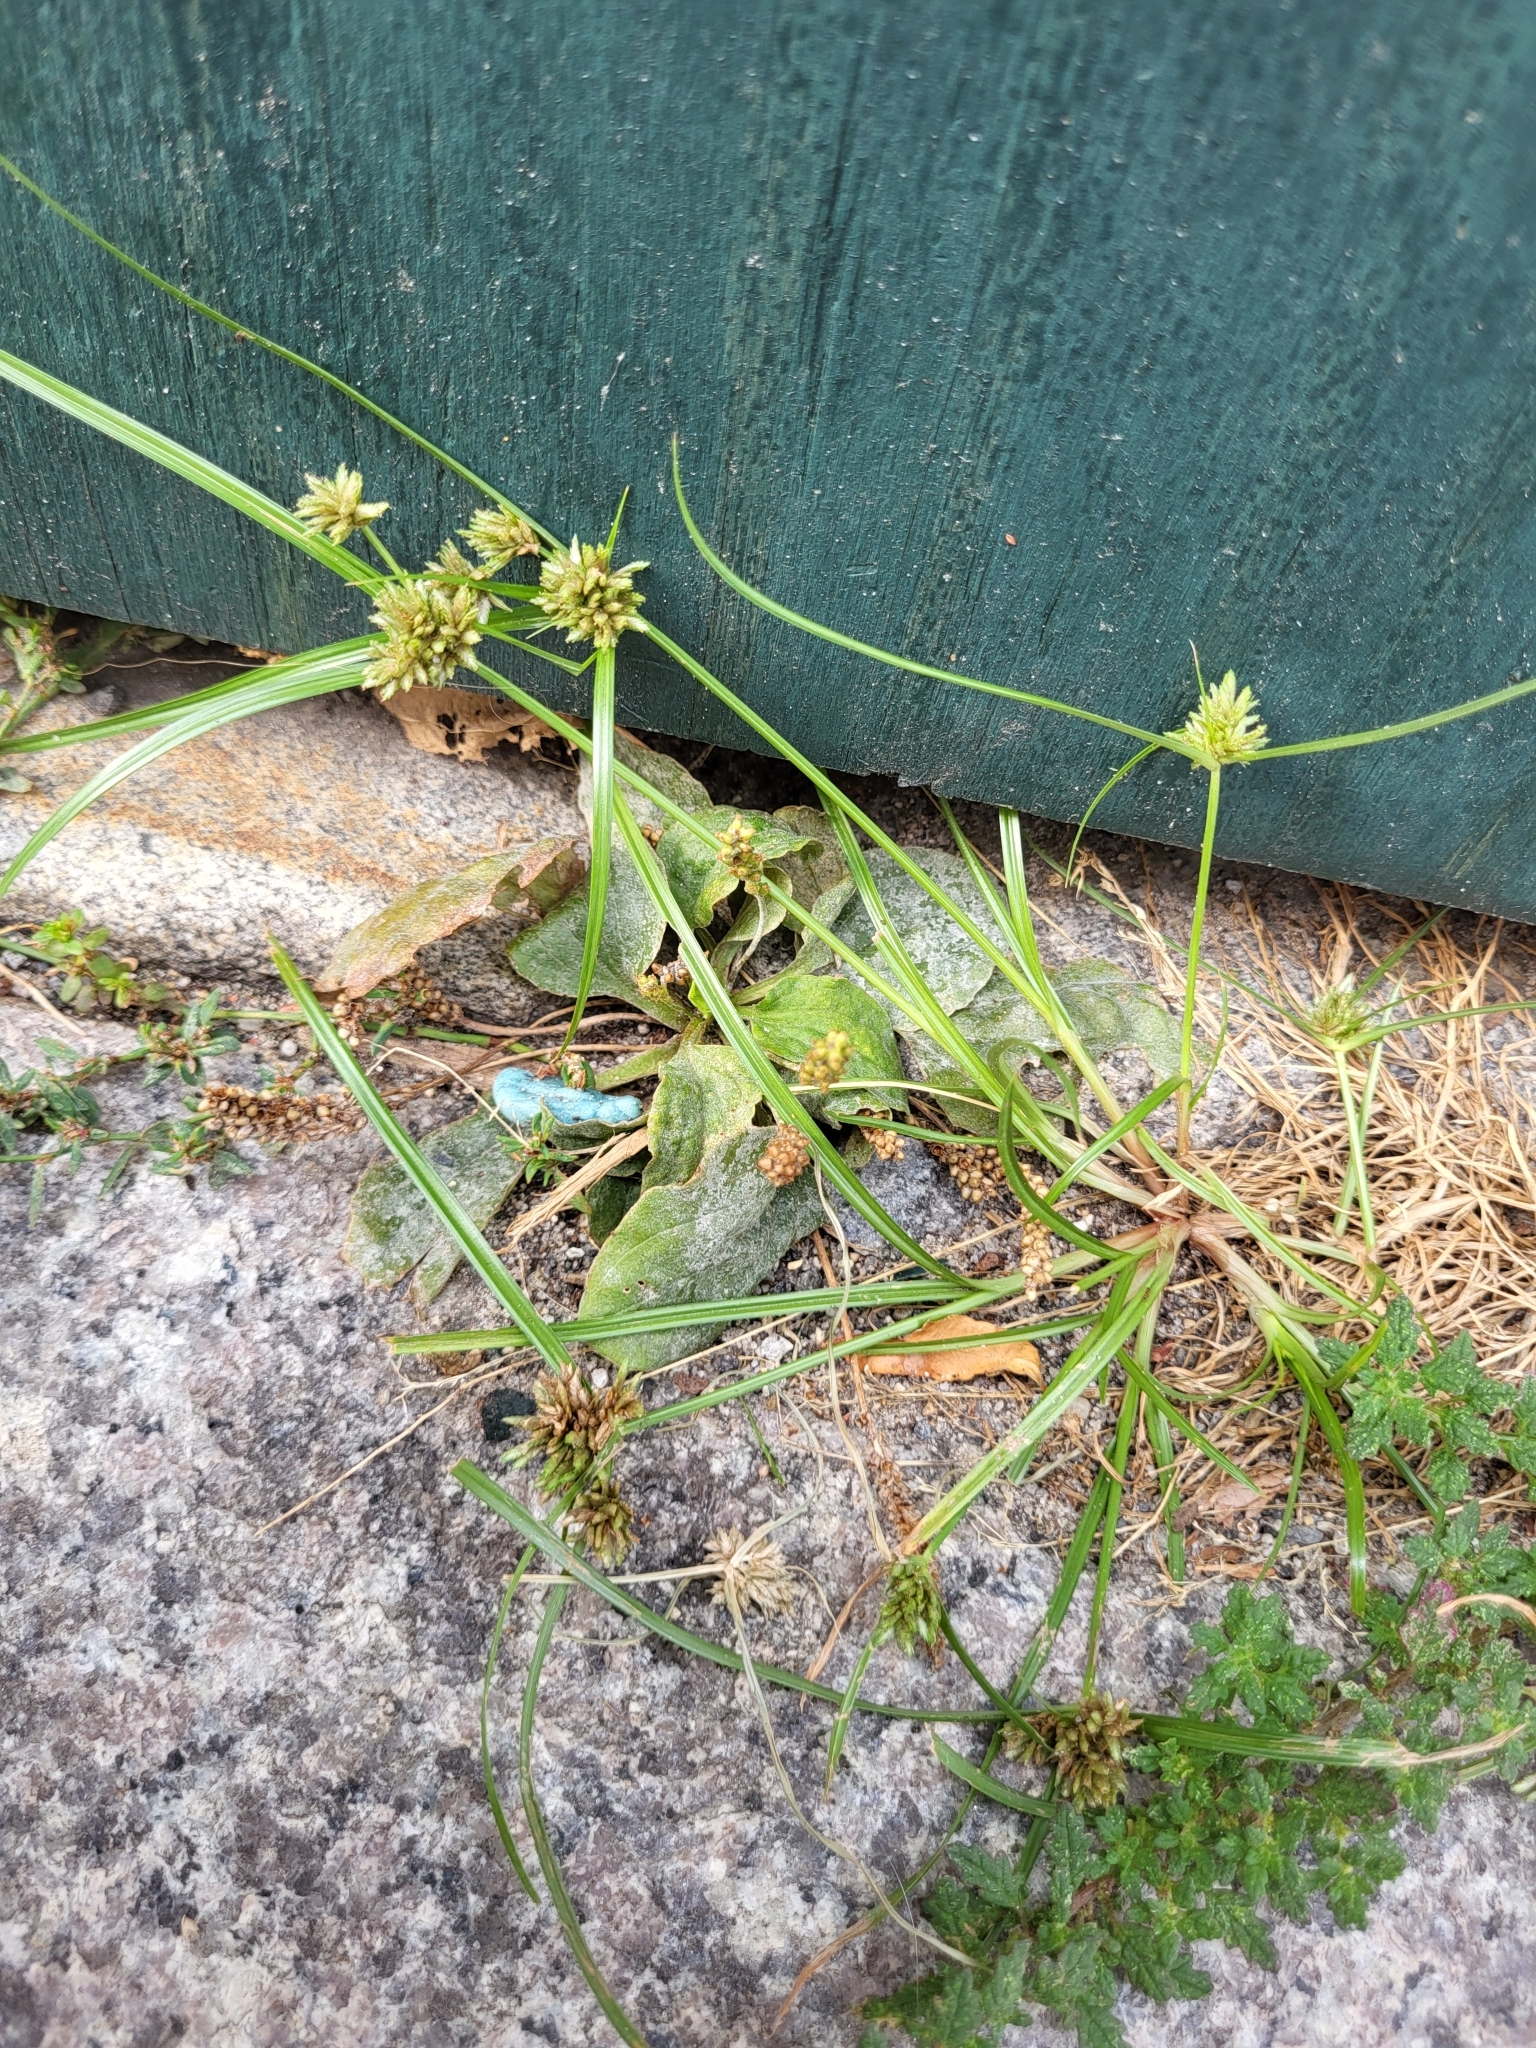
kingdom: Plantae
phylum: Tracheophyta
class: Liliopsida
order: Poales
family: Cyperaceae
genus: Cyperus
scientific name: Cyperus nipponicus
